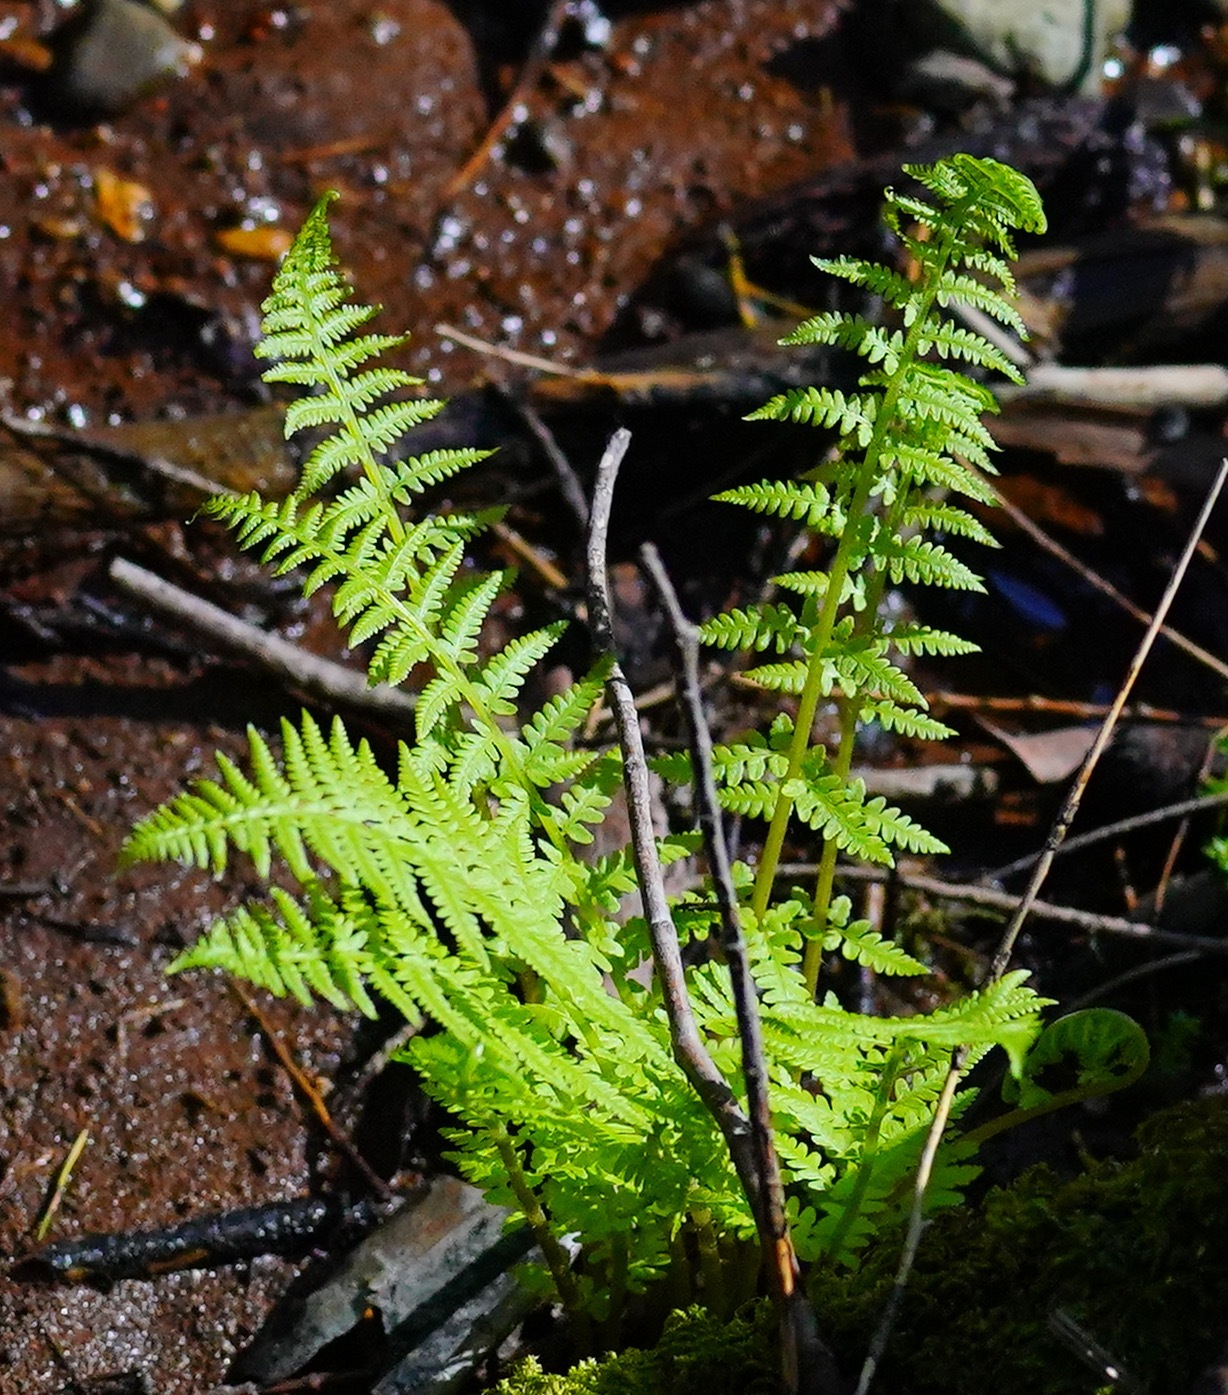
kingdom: Plantae
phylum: Tracheophyta
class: Polypodiopsida
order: Polypodiales
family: Athyriaceae
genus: Athyrium
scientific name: Athyrium filix-femina
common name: Lady fern
